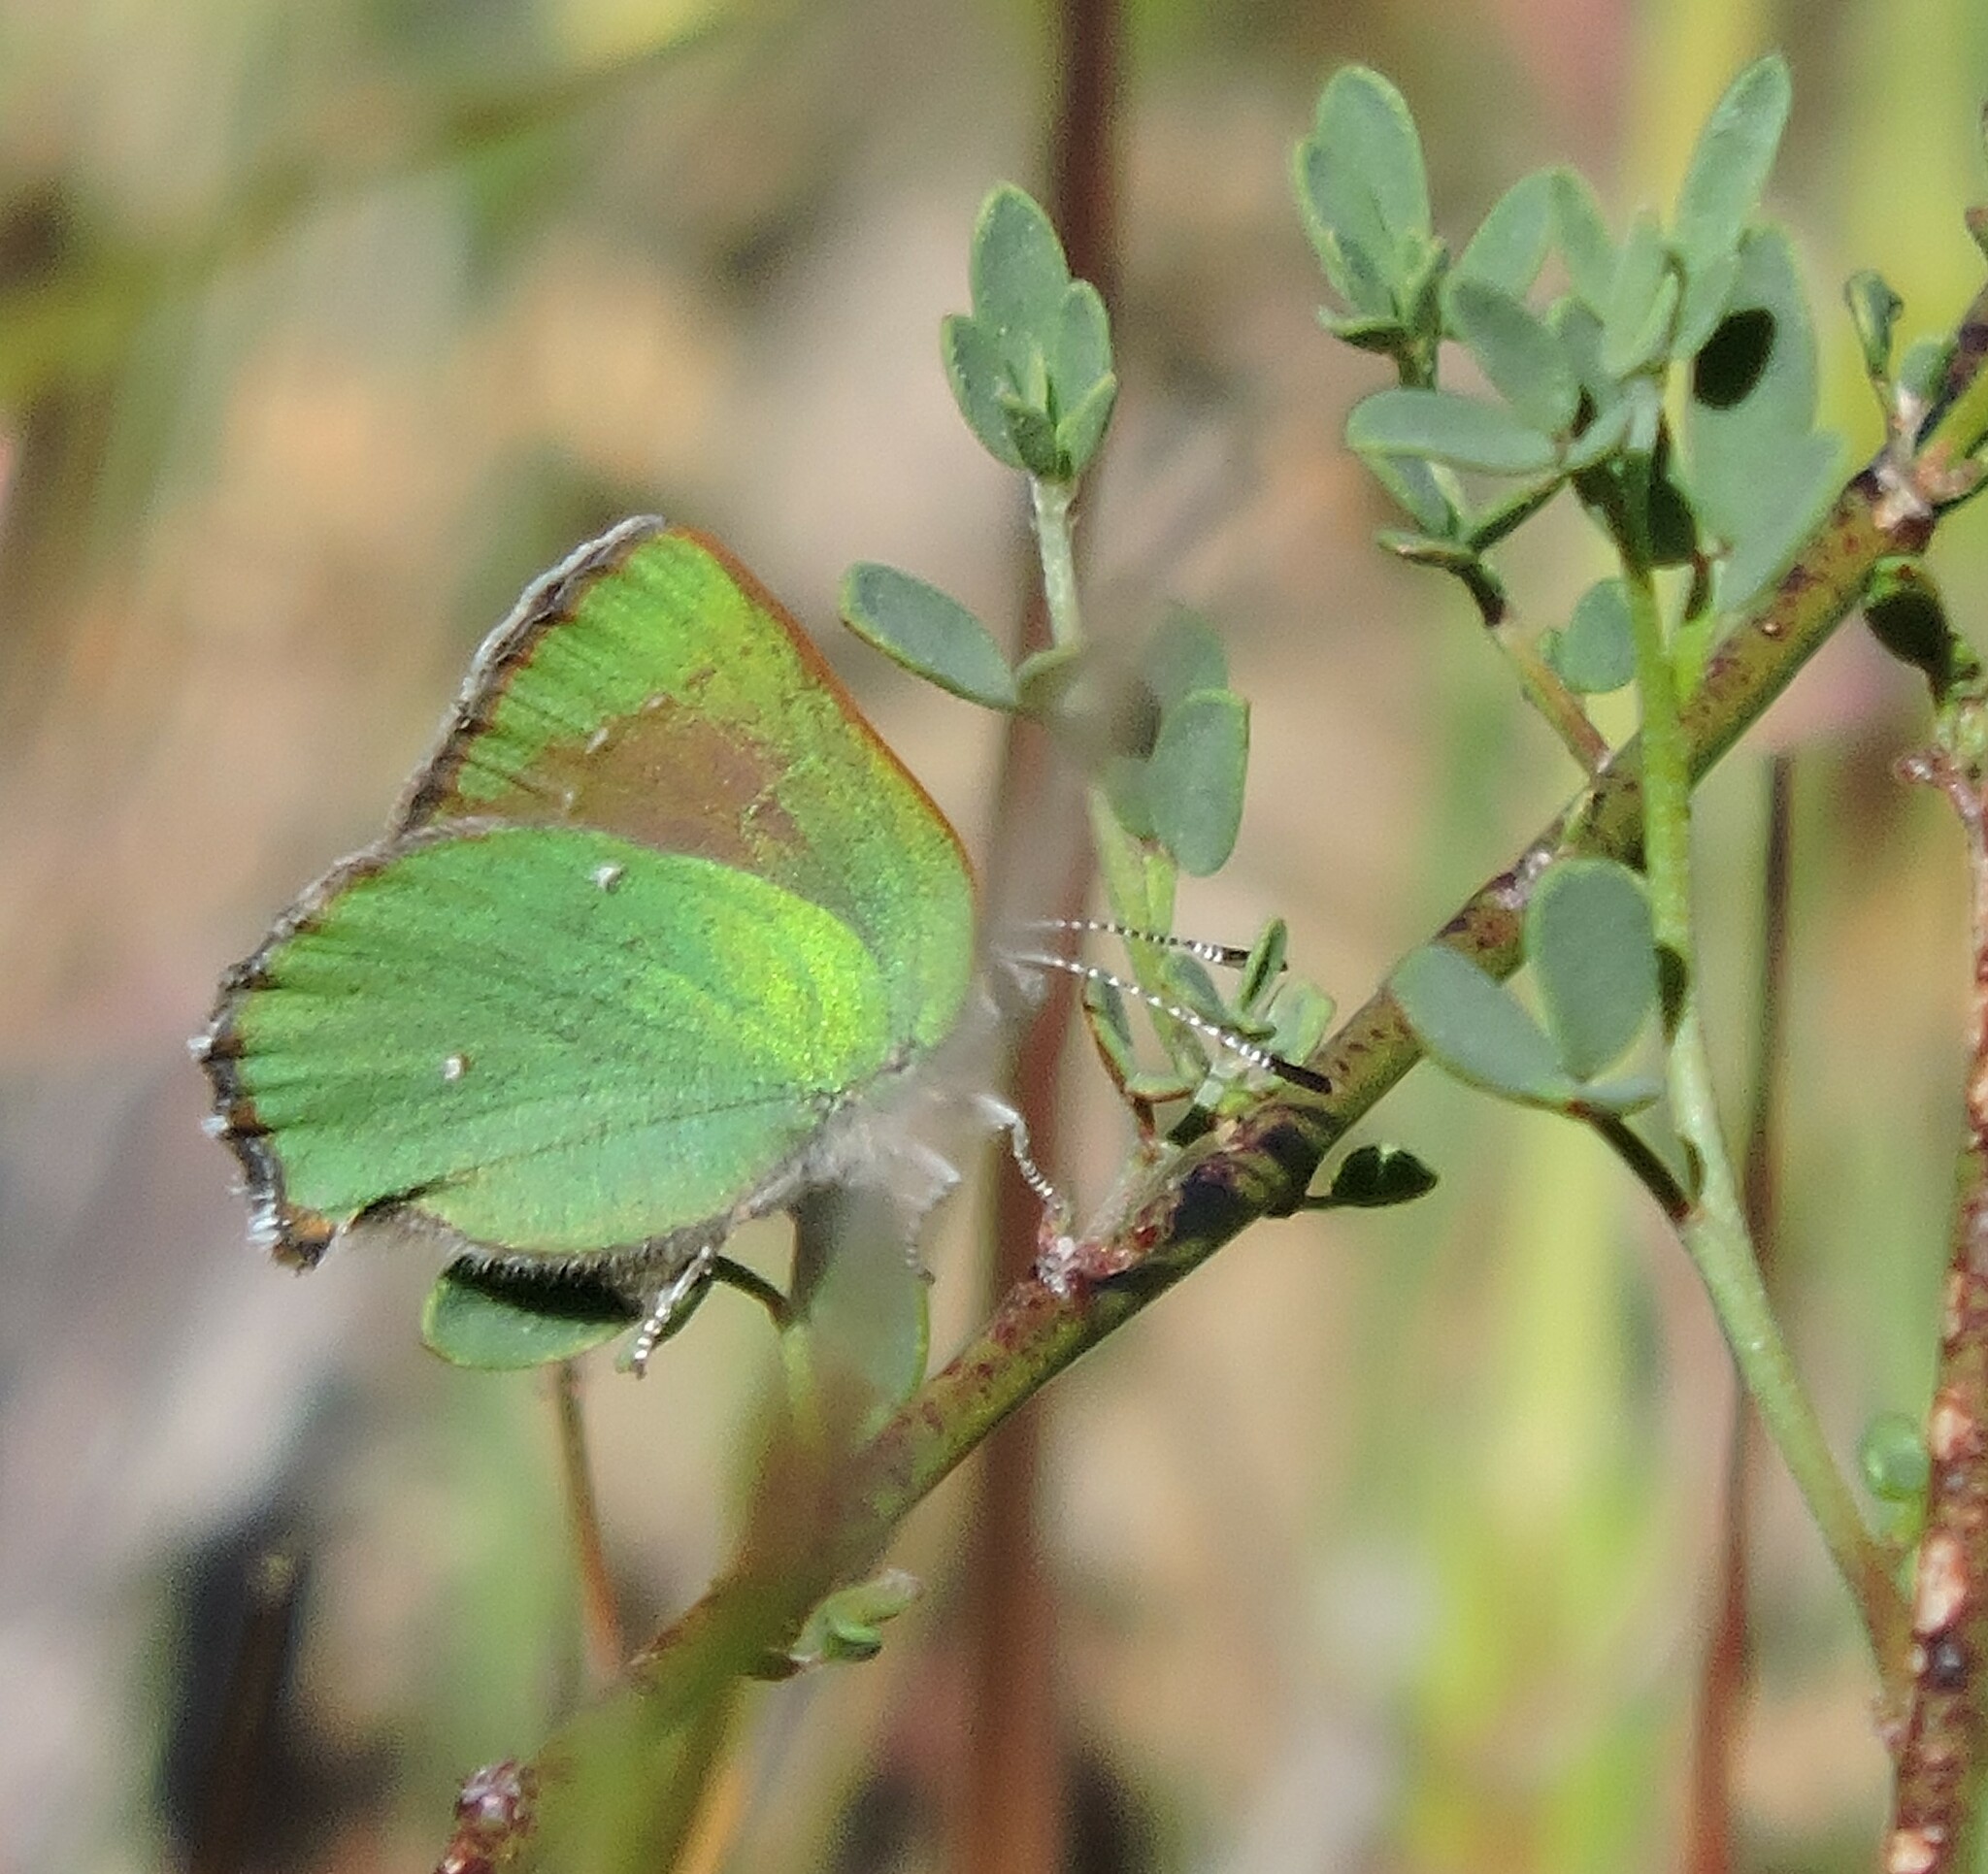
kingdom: Animalia
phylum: Arthropoda
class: Insecta
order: Lepidoptera
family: Lycaenidae
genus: Callophrys
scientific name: Callophrys dumetorum
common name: Bramble hairstreak
